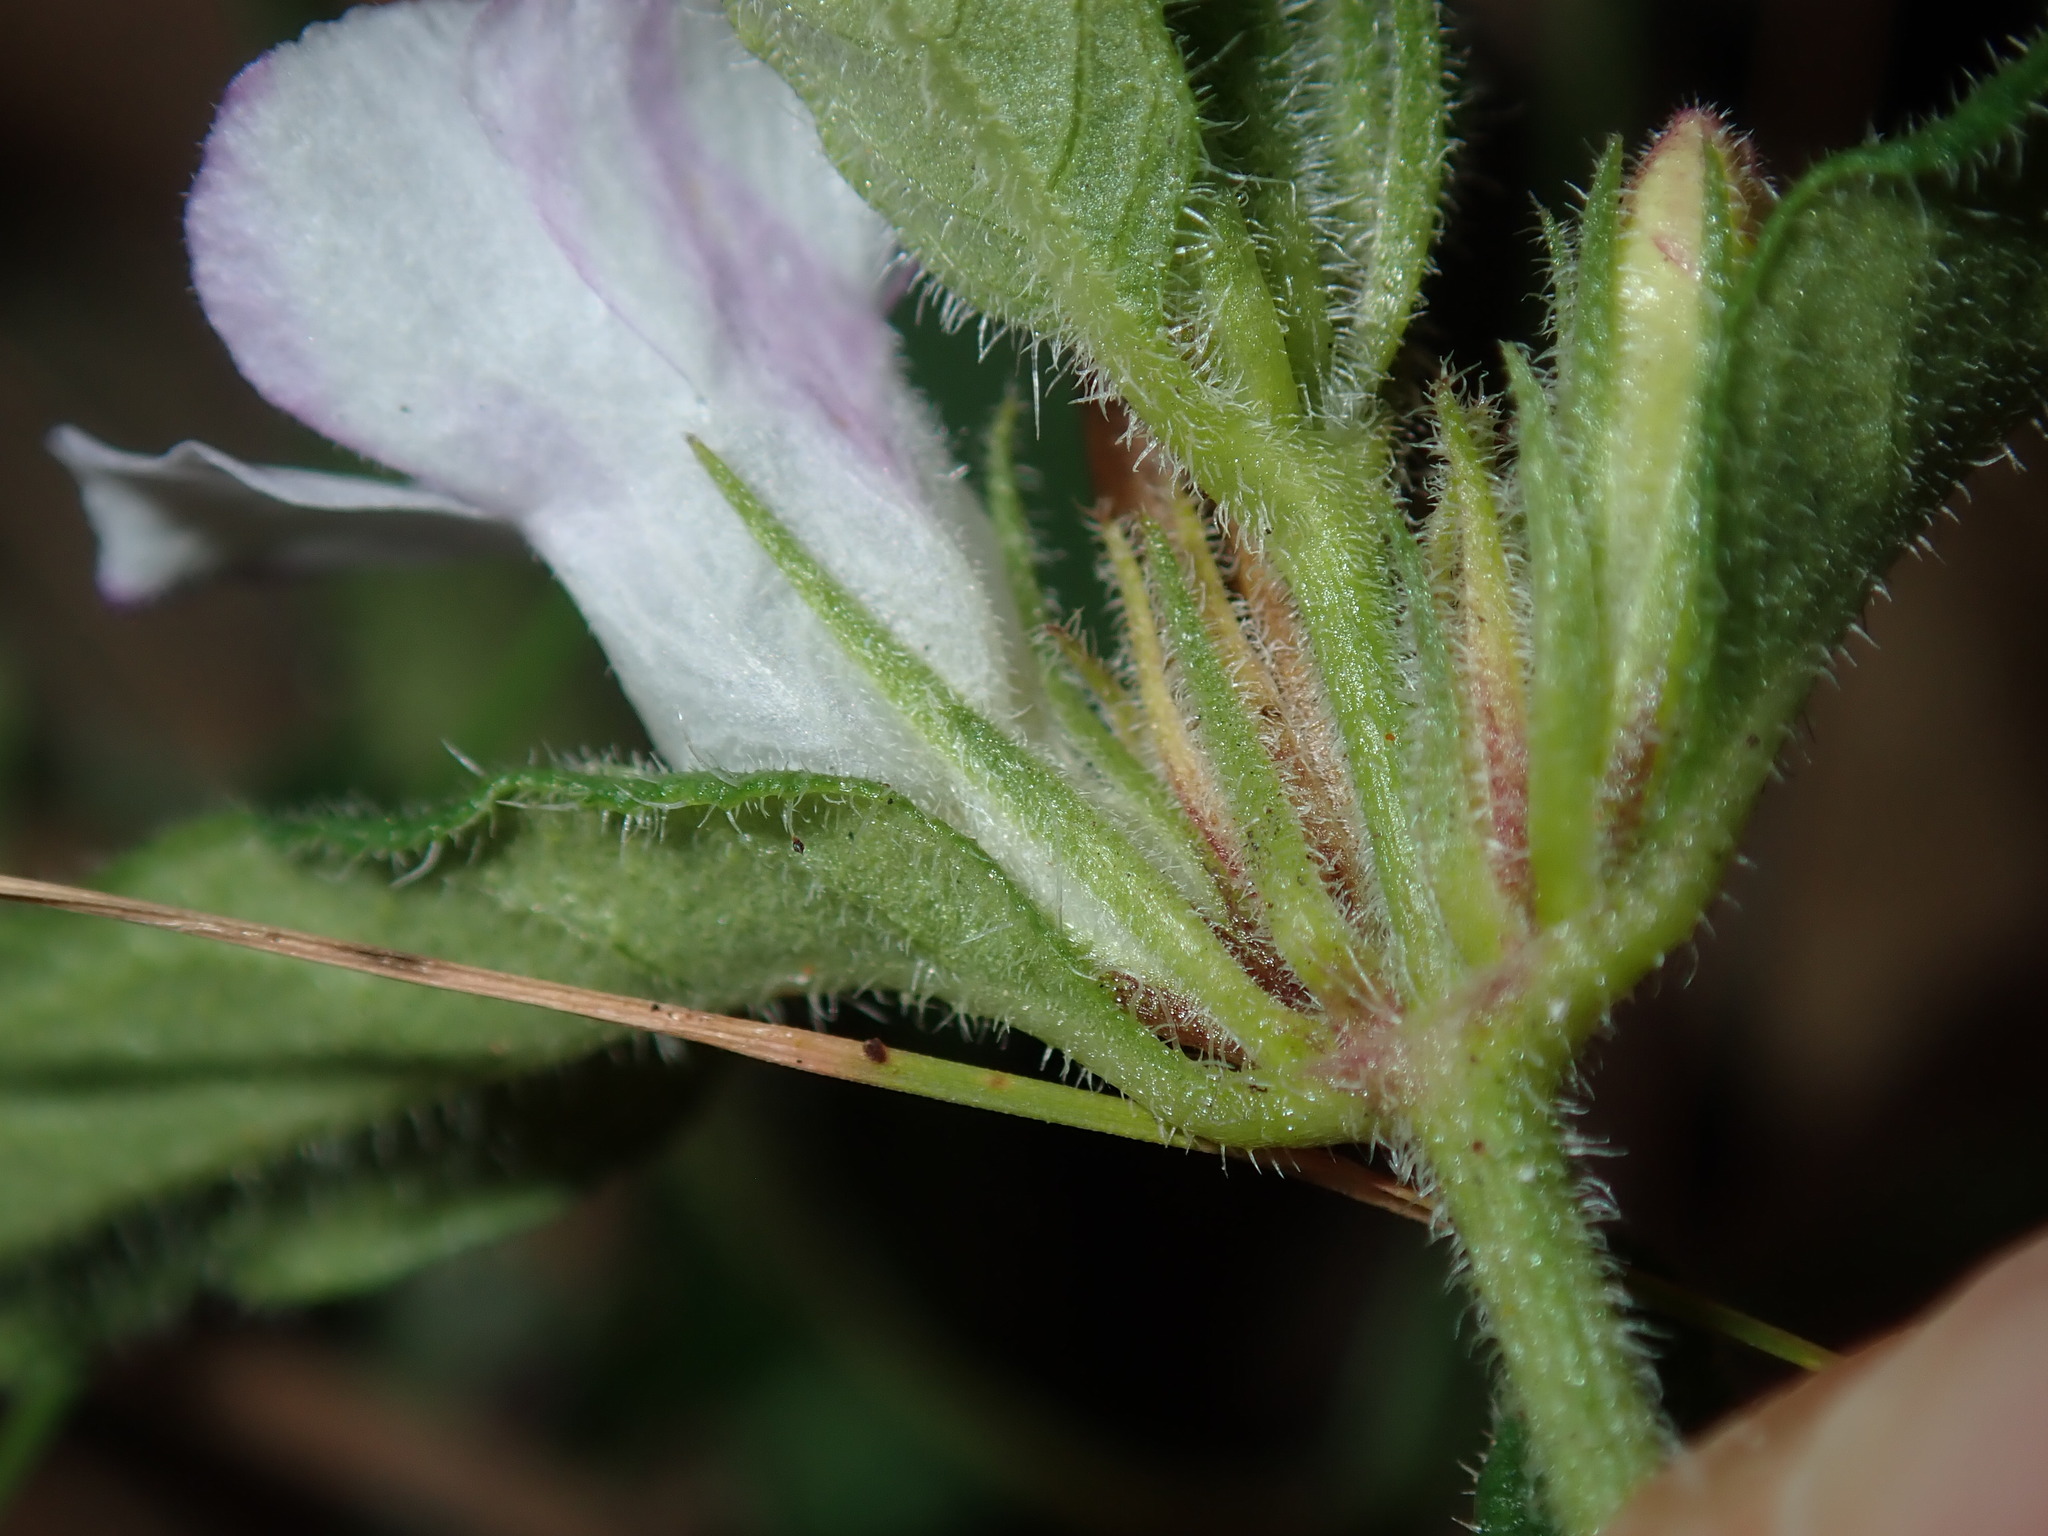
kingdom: Plantae
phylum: Tracheophyta
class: Magnoliopsida
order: Lamiales
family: Acanthaceae
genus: Brunoniella
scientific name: Brunoniella australis
